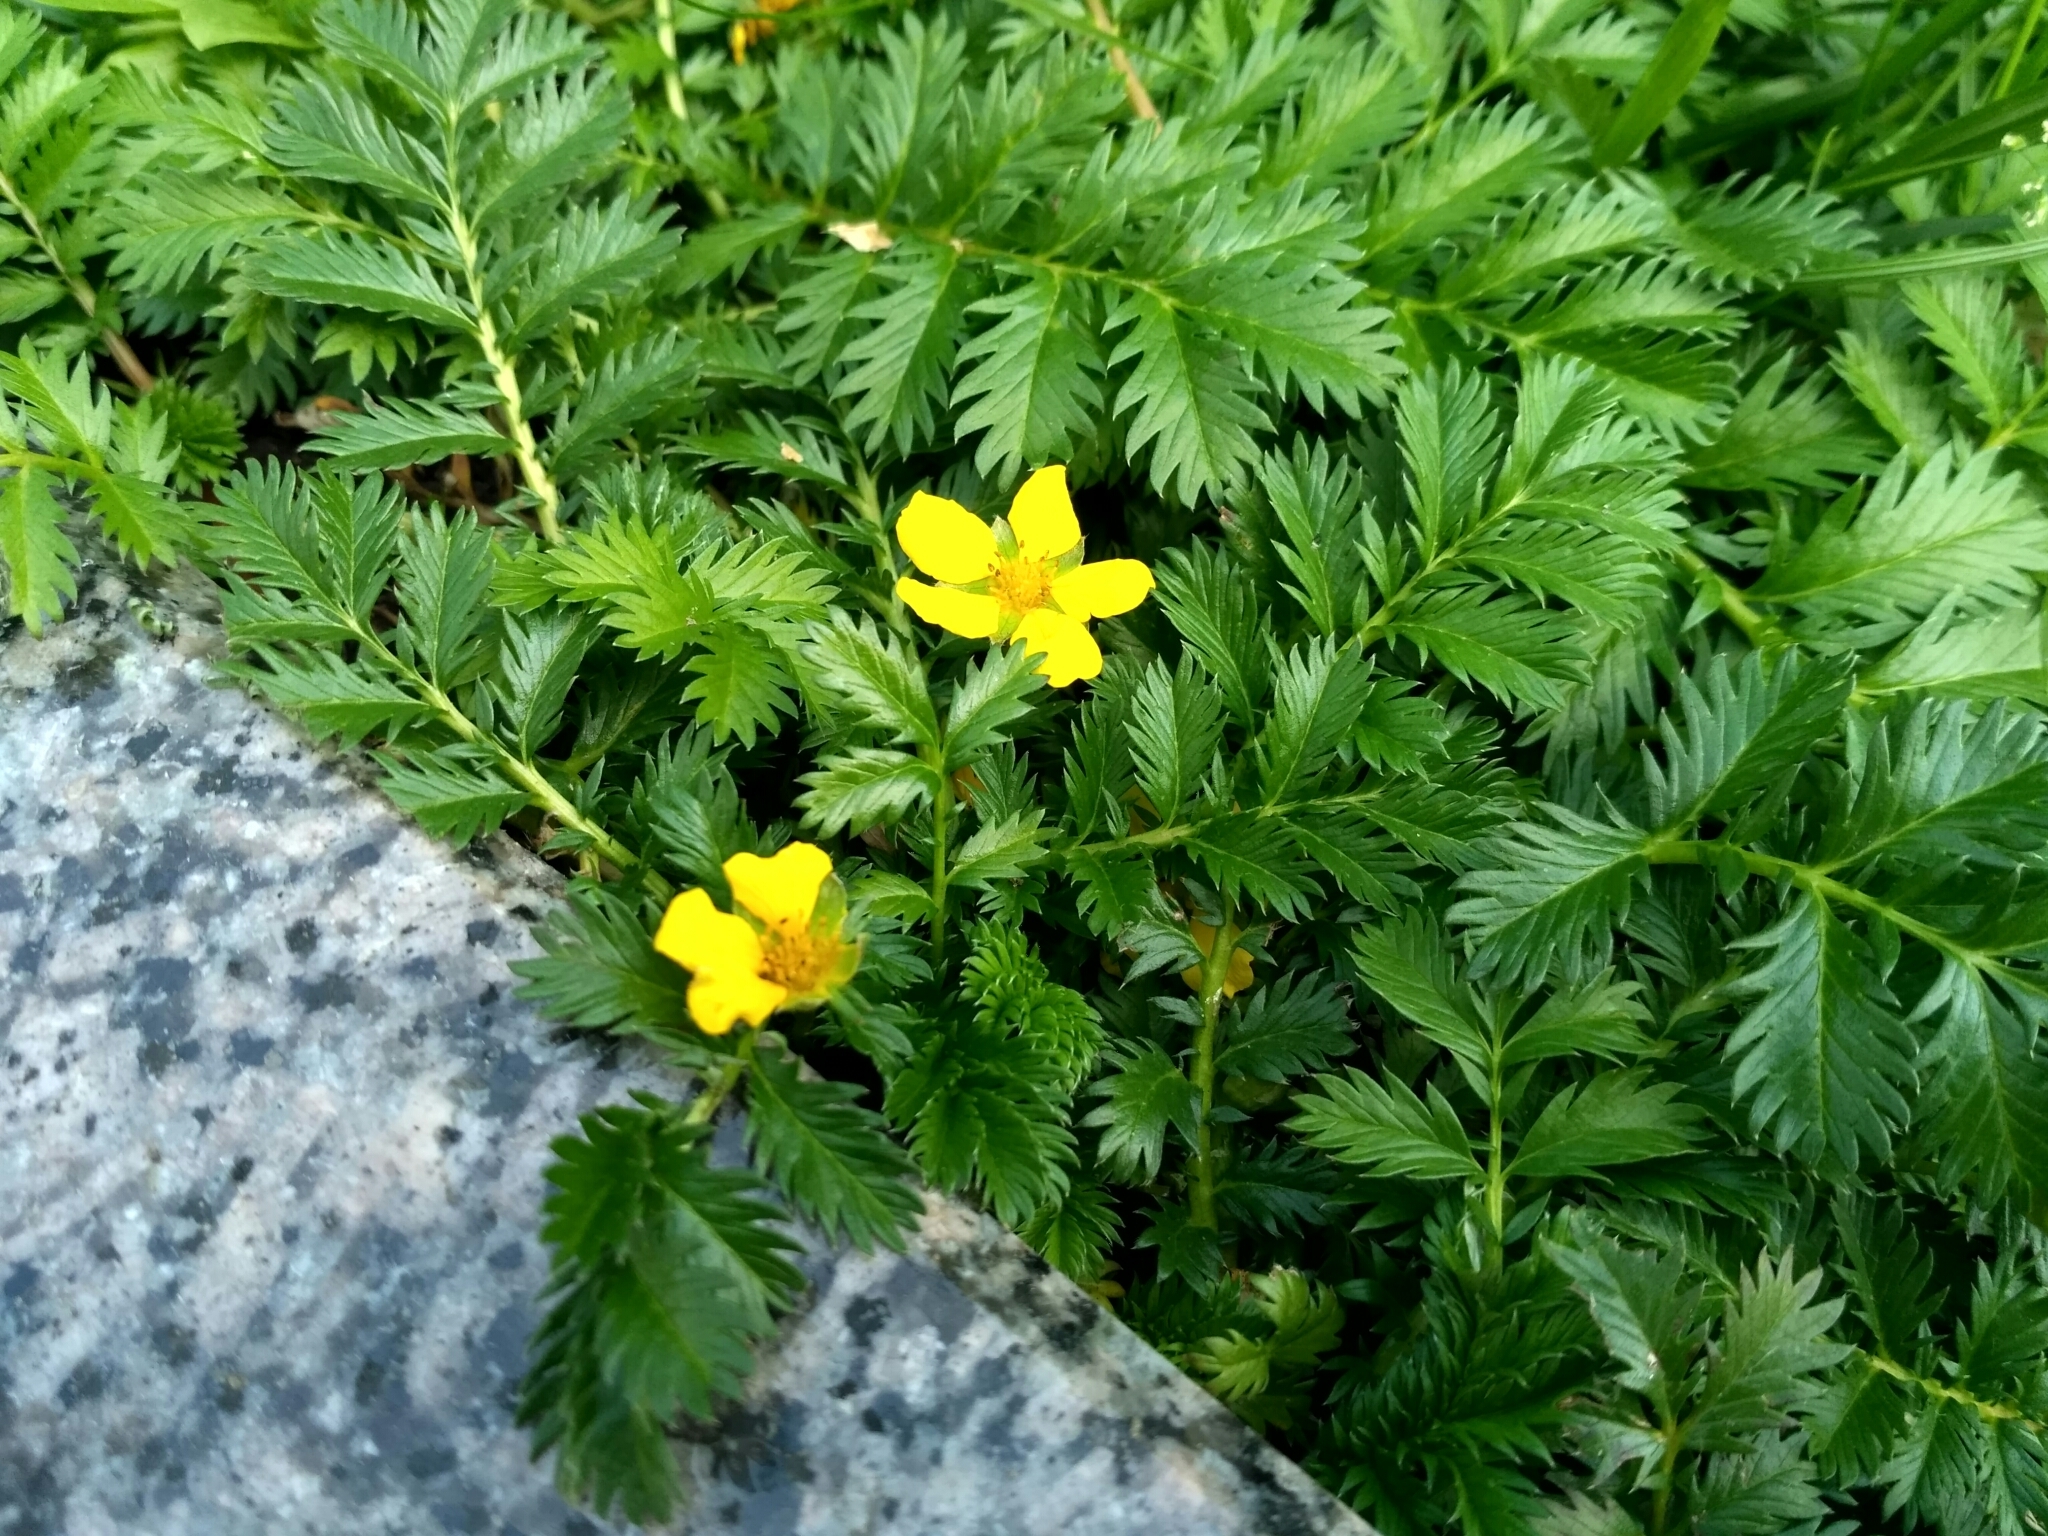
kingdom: Plantae
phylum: Tracheophyta
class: Magnoliopsida
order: Rosales
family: Rosaceae
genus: Argentina
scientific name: Argentina anserina
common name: Common silverweed
